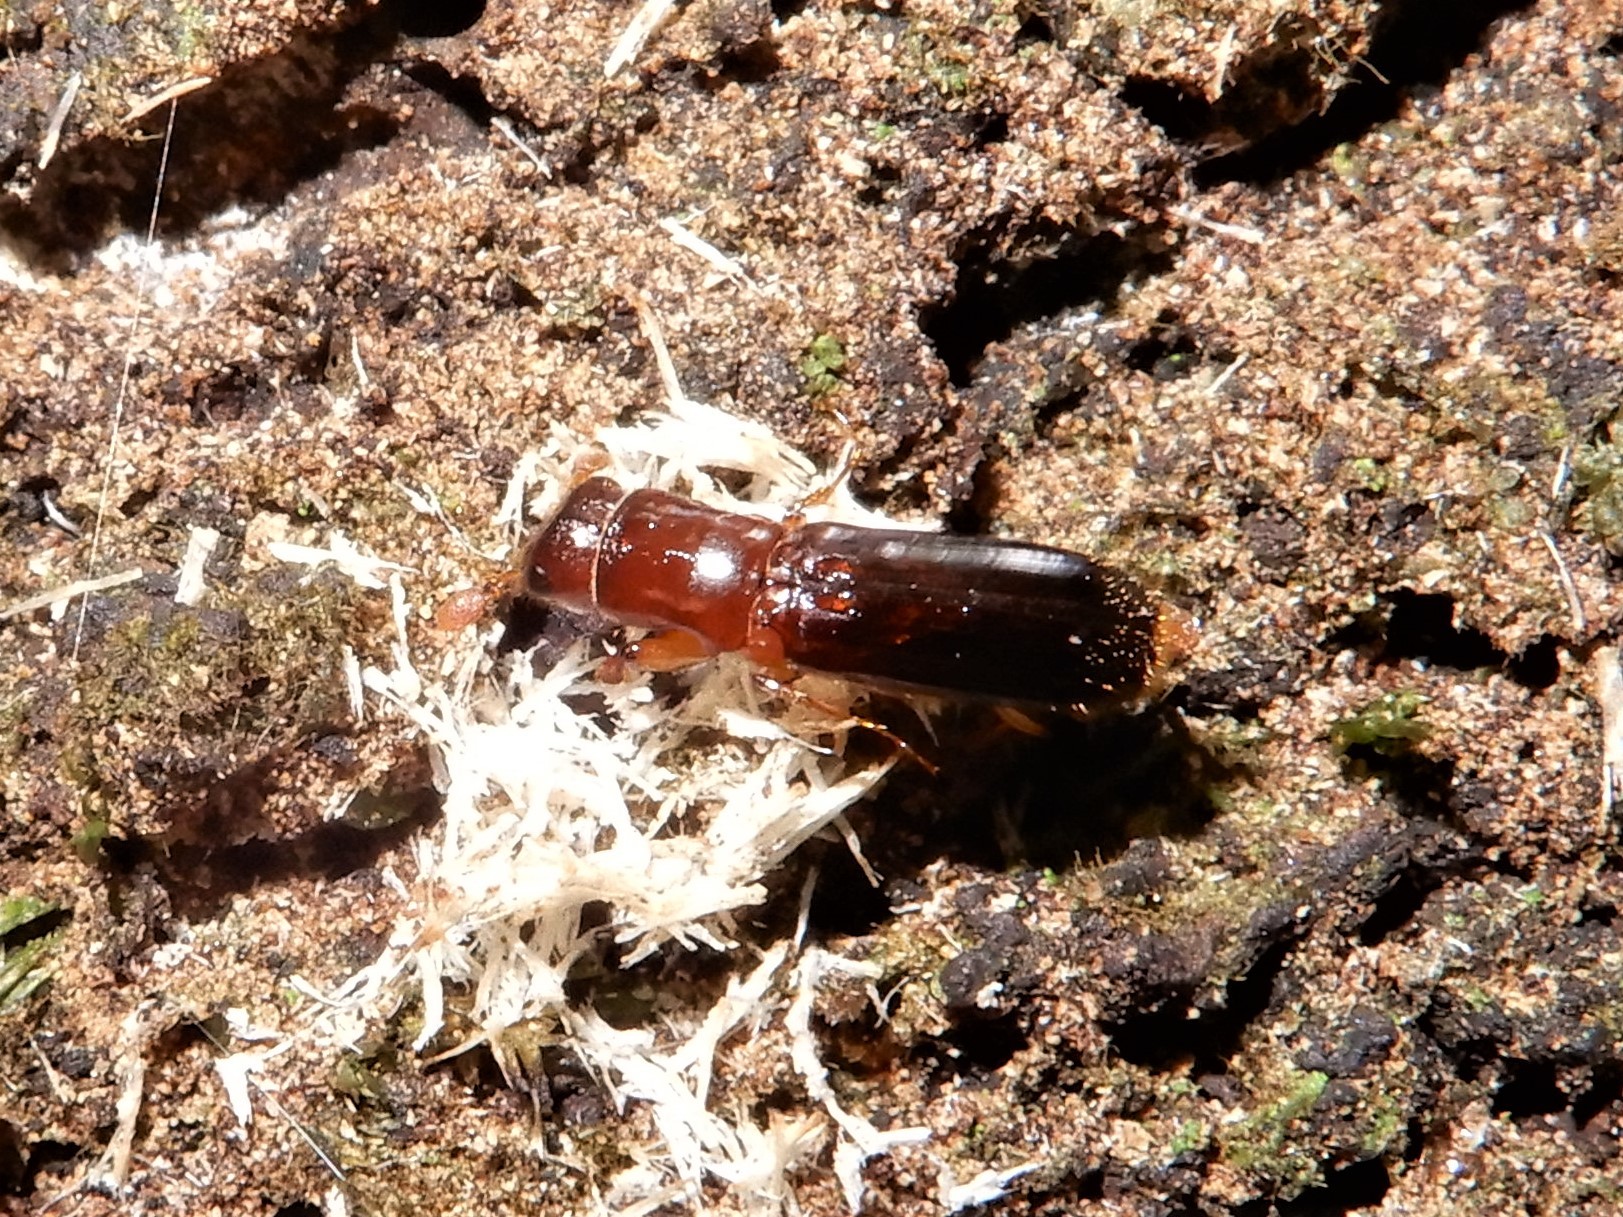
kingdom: Animalia
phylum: Arthropoda
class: Insecta
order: Coleoptera
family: Curculionidae
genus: Platypus
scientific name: Platypus apicalis
